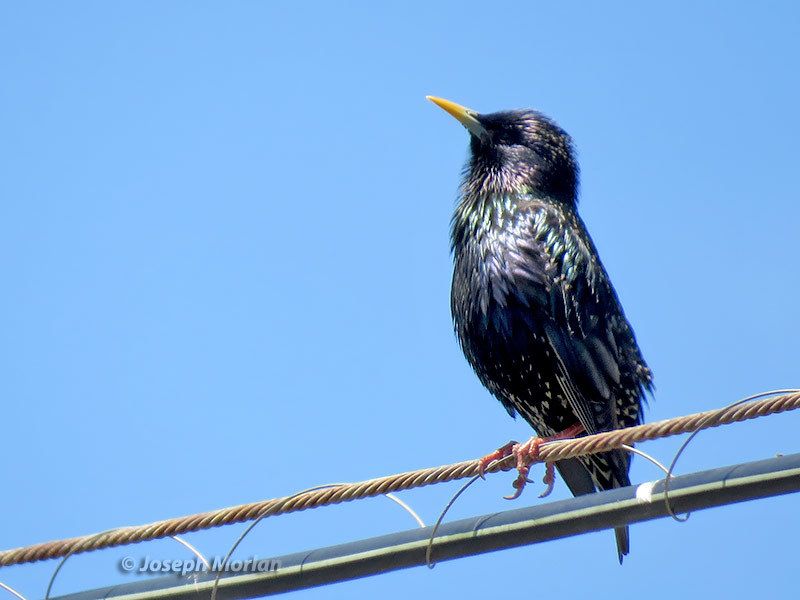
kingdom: Animalia
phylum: Chordata
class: Aves
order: Passeriformes
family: Sturnidae
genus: Sturnus
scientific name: Sturnus vulgaris
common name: Common starling
